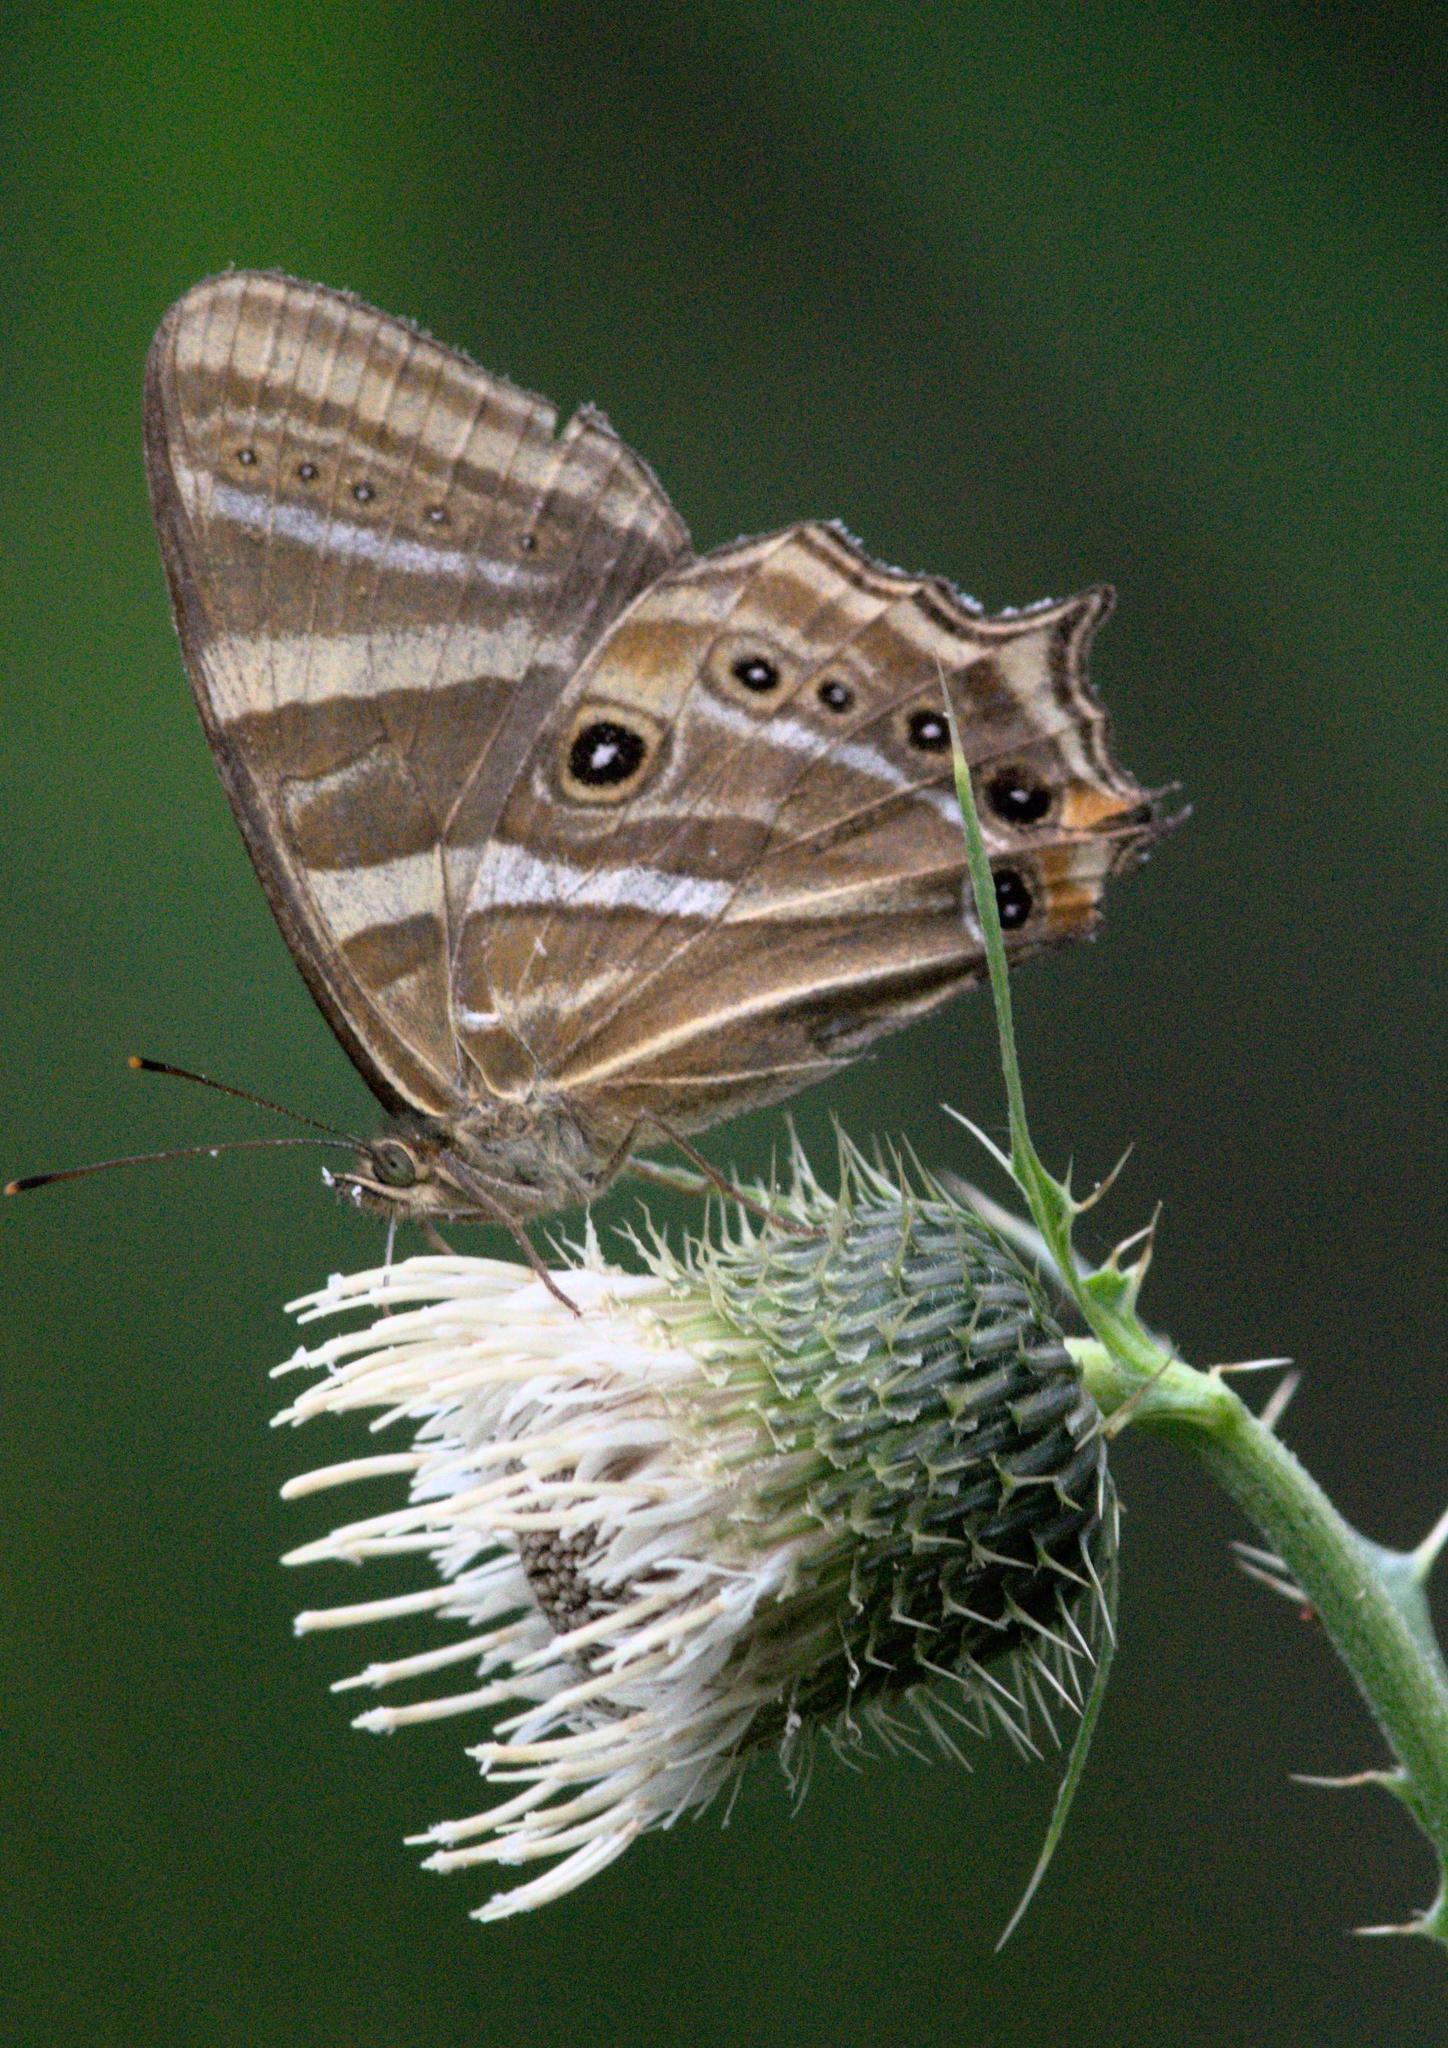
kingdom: Animalia
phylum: Arthropoda
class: Insecta
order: Lepidoptera
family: Nymphalidae
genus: Lethe
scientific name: Lethe baladeva
